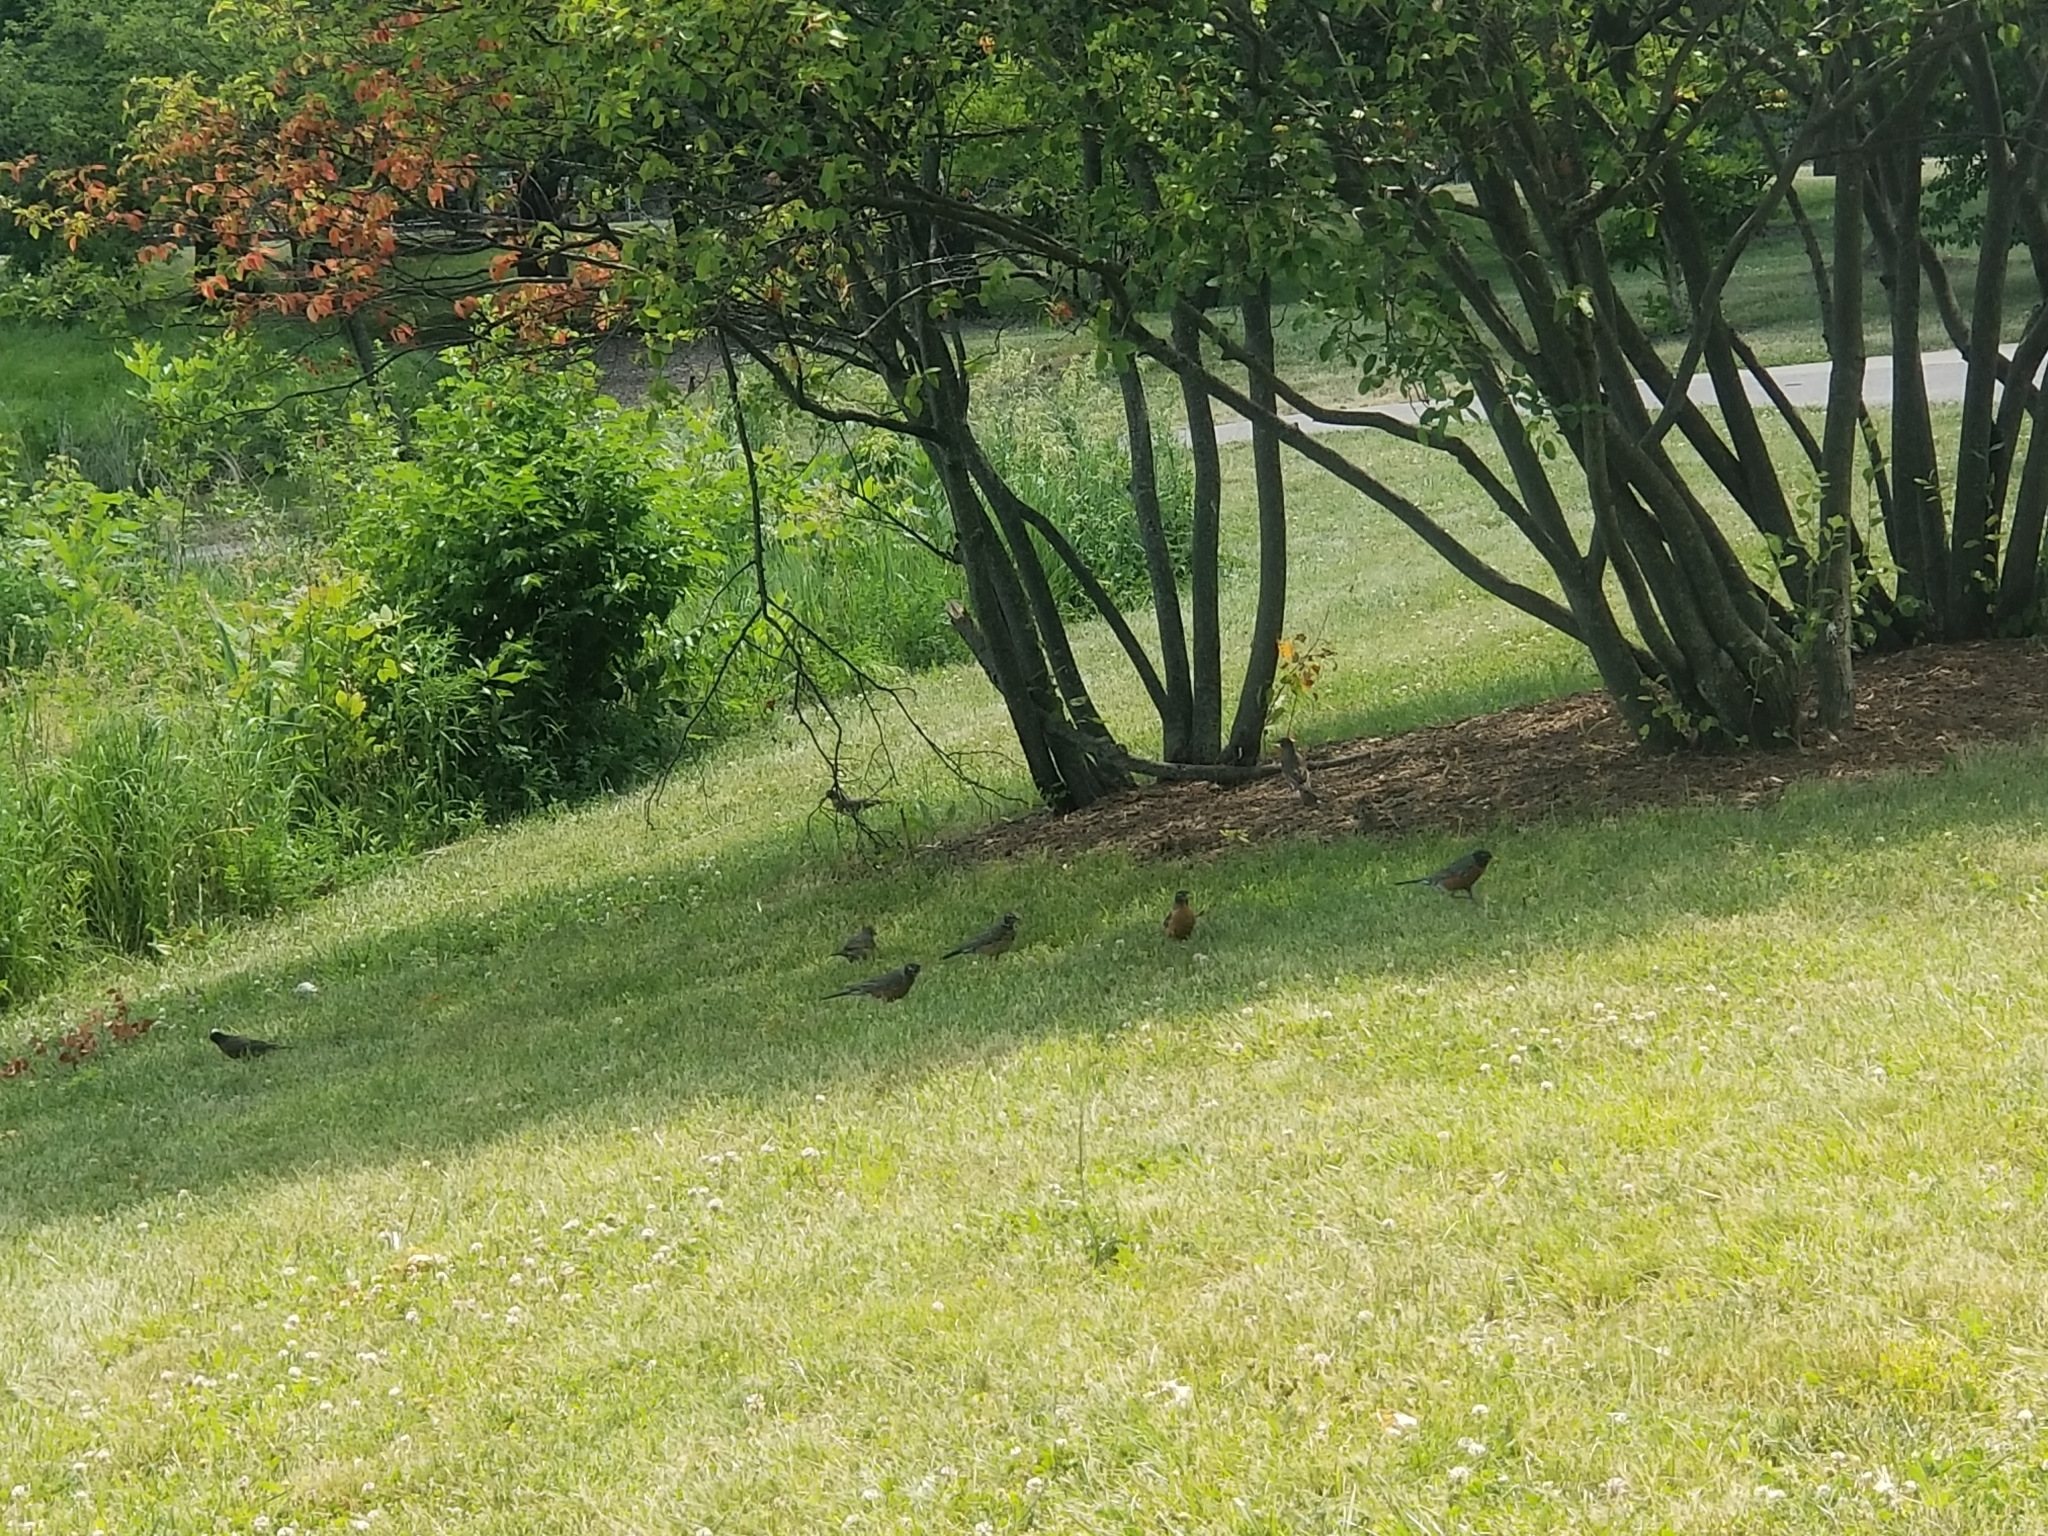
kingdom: Animalia
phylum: Chordata
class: Aves
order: Passeriformes
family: Turdidae
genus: Turdus
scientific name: Turdus migratorius
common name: American robin
